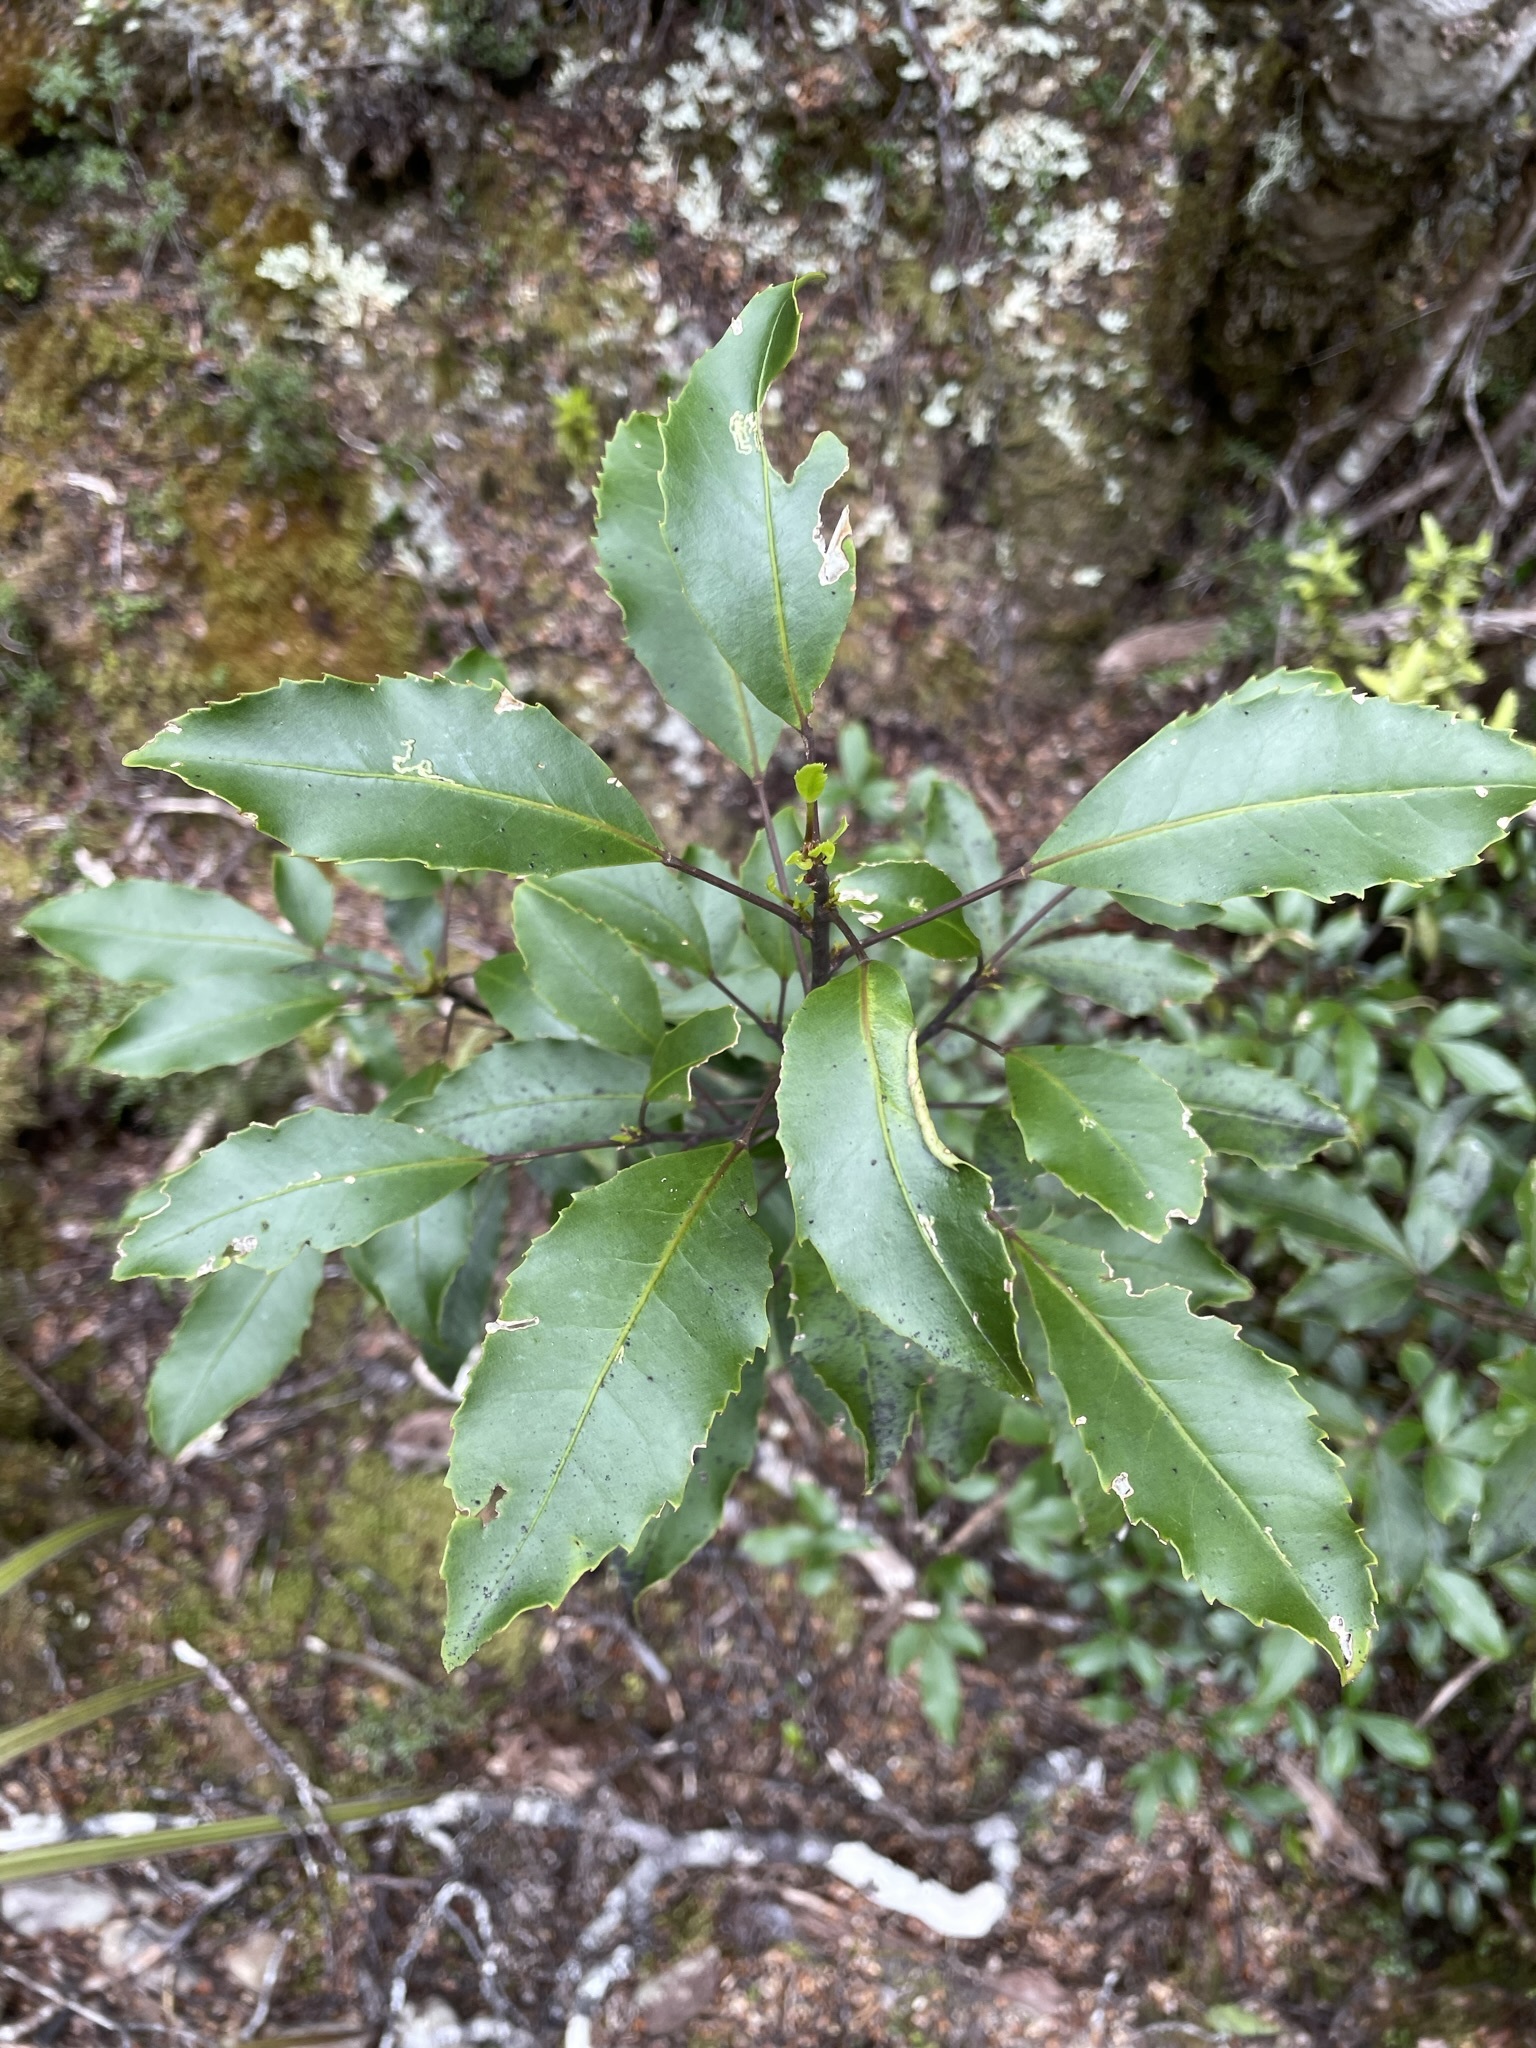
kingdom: Plantae
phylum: Tracheophyta
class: Magnoliopsida
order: Apiales
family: Araliaceae
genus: Raukaua
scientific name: Raukaua simplex
